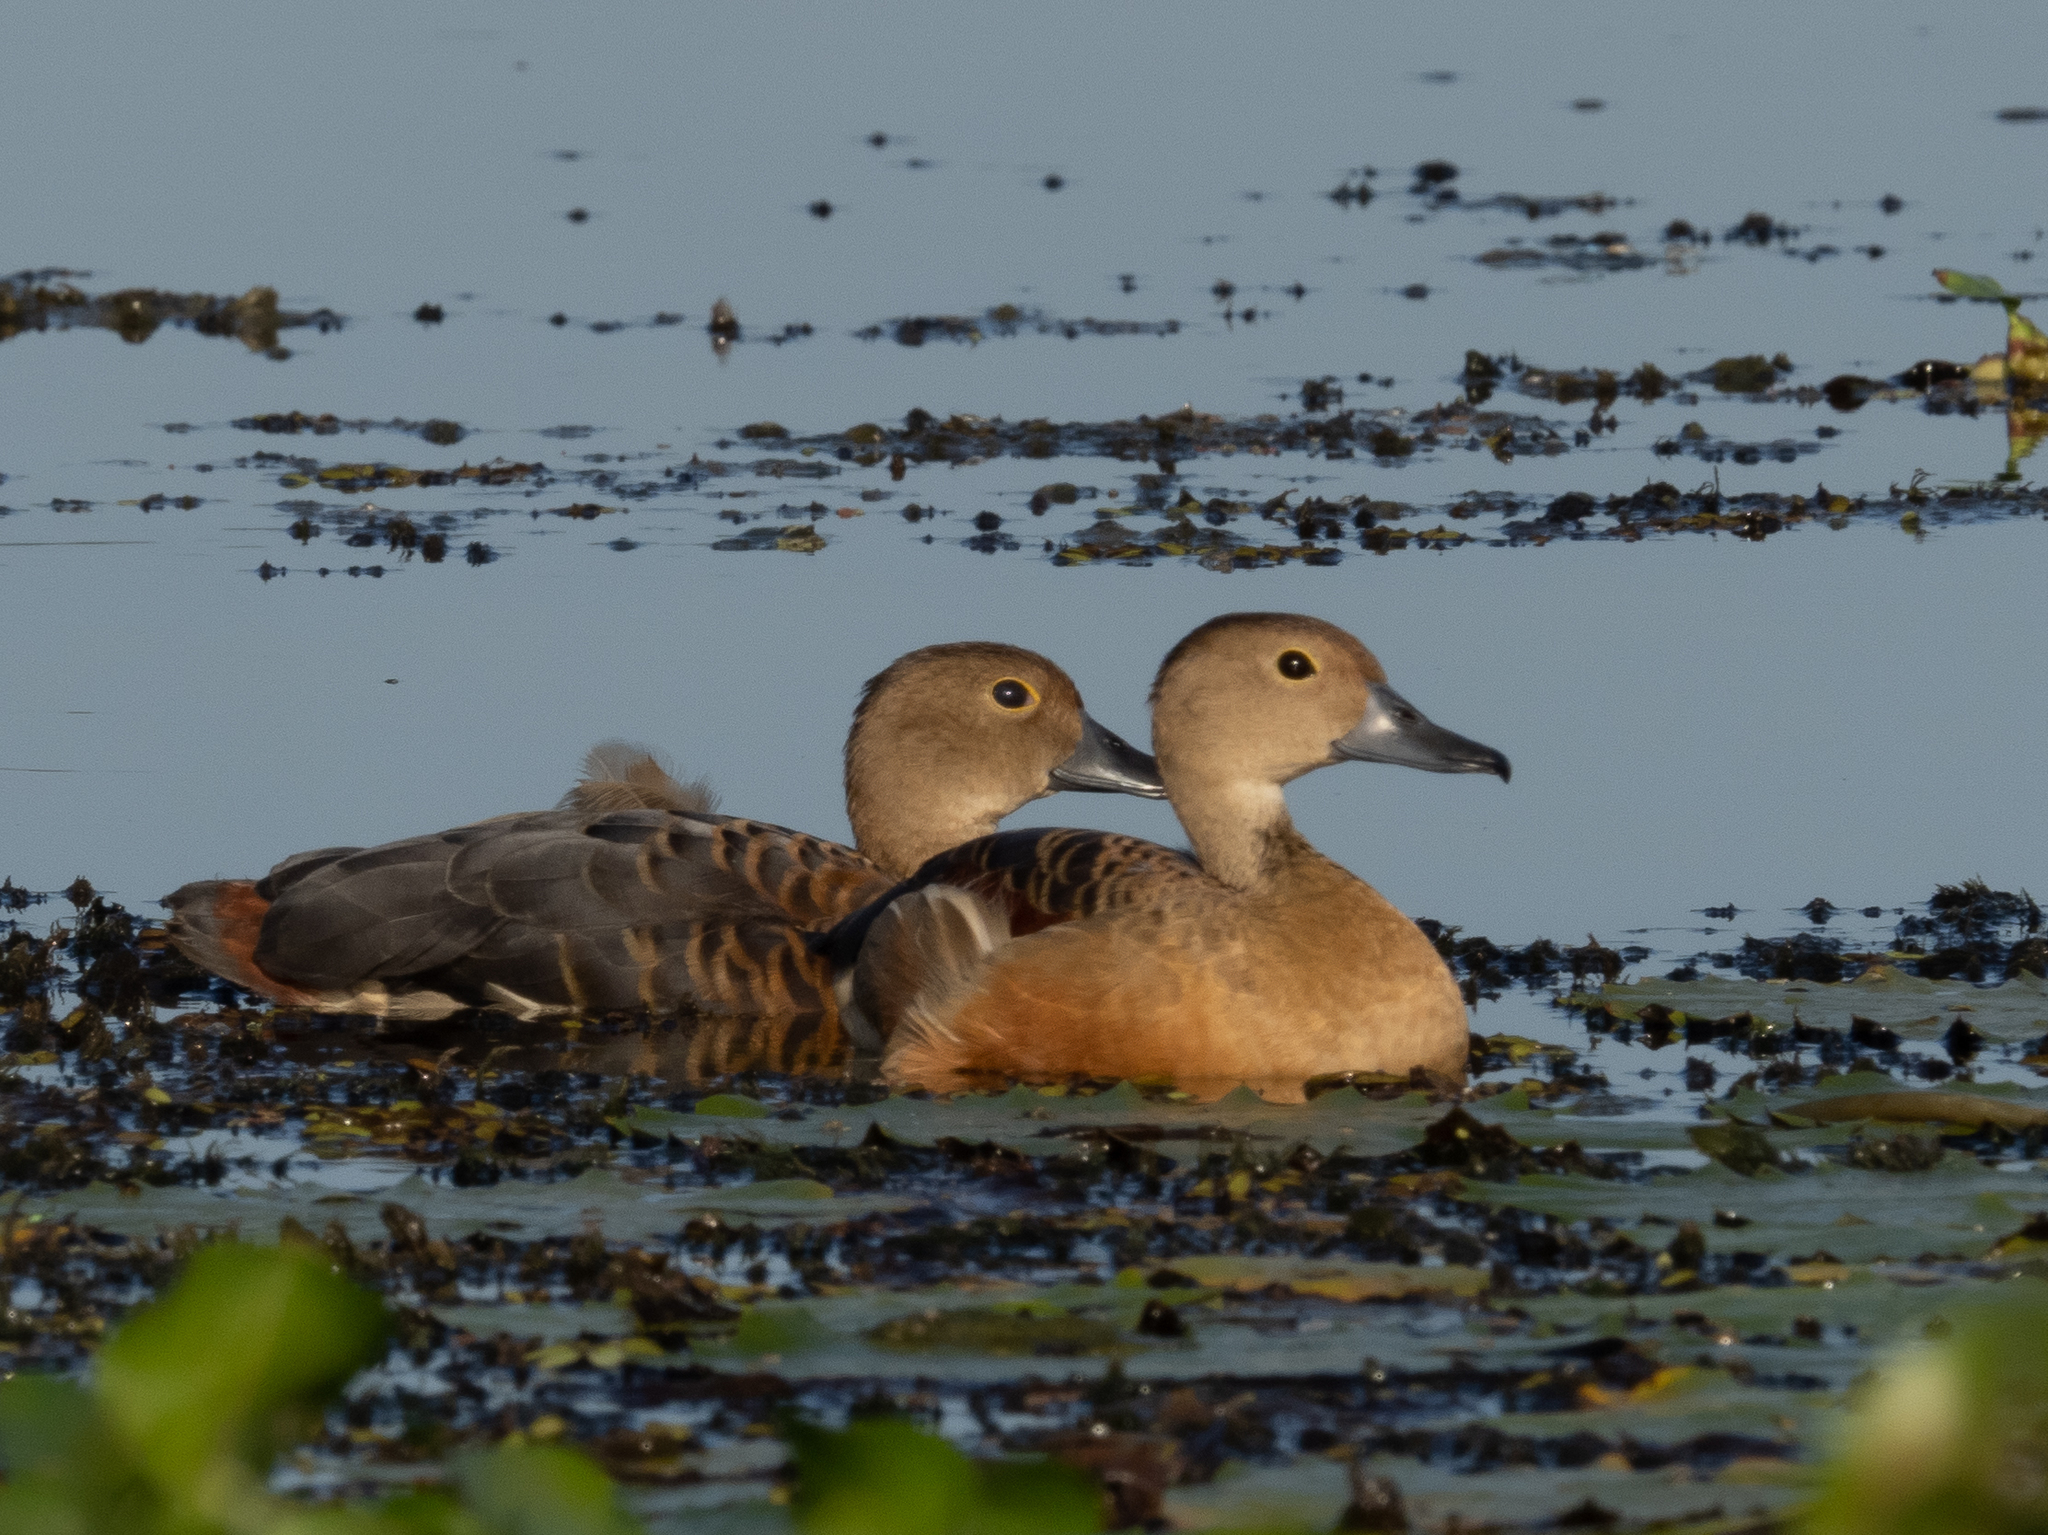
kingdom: Animalia
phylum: Chordata
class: Aves
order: Anseriformes
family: Anatidae
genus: Dendrocygna
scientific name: Dendrocygna javanica
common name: Lesser whistling-duck
